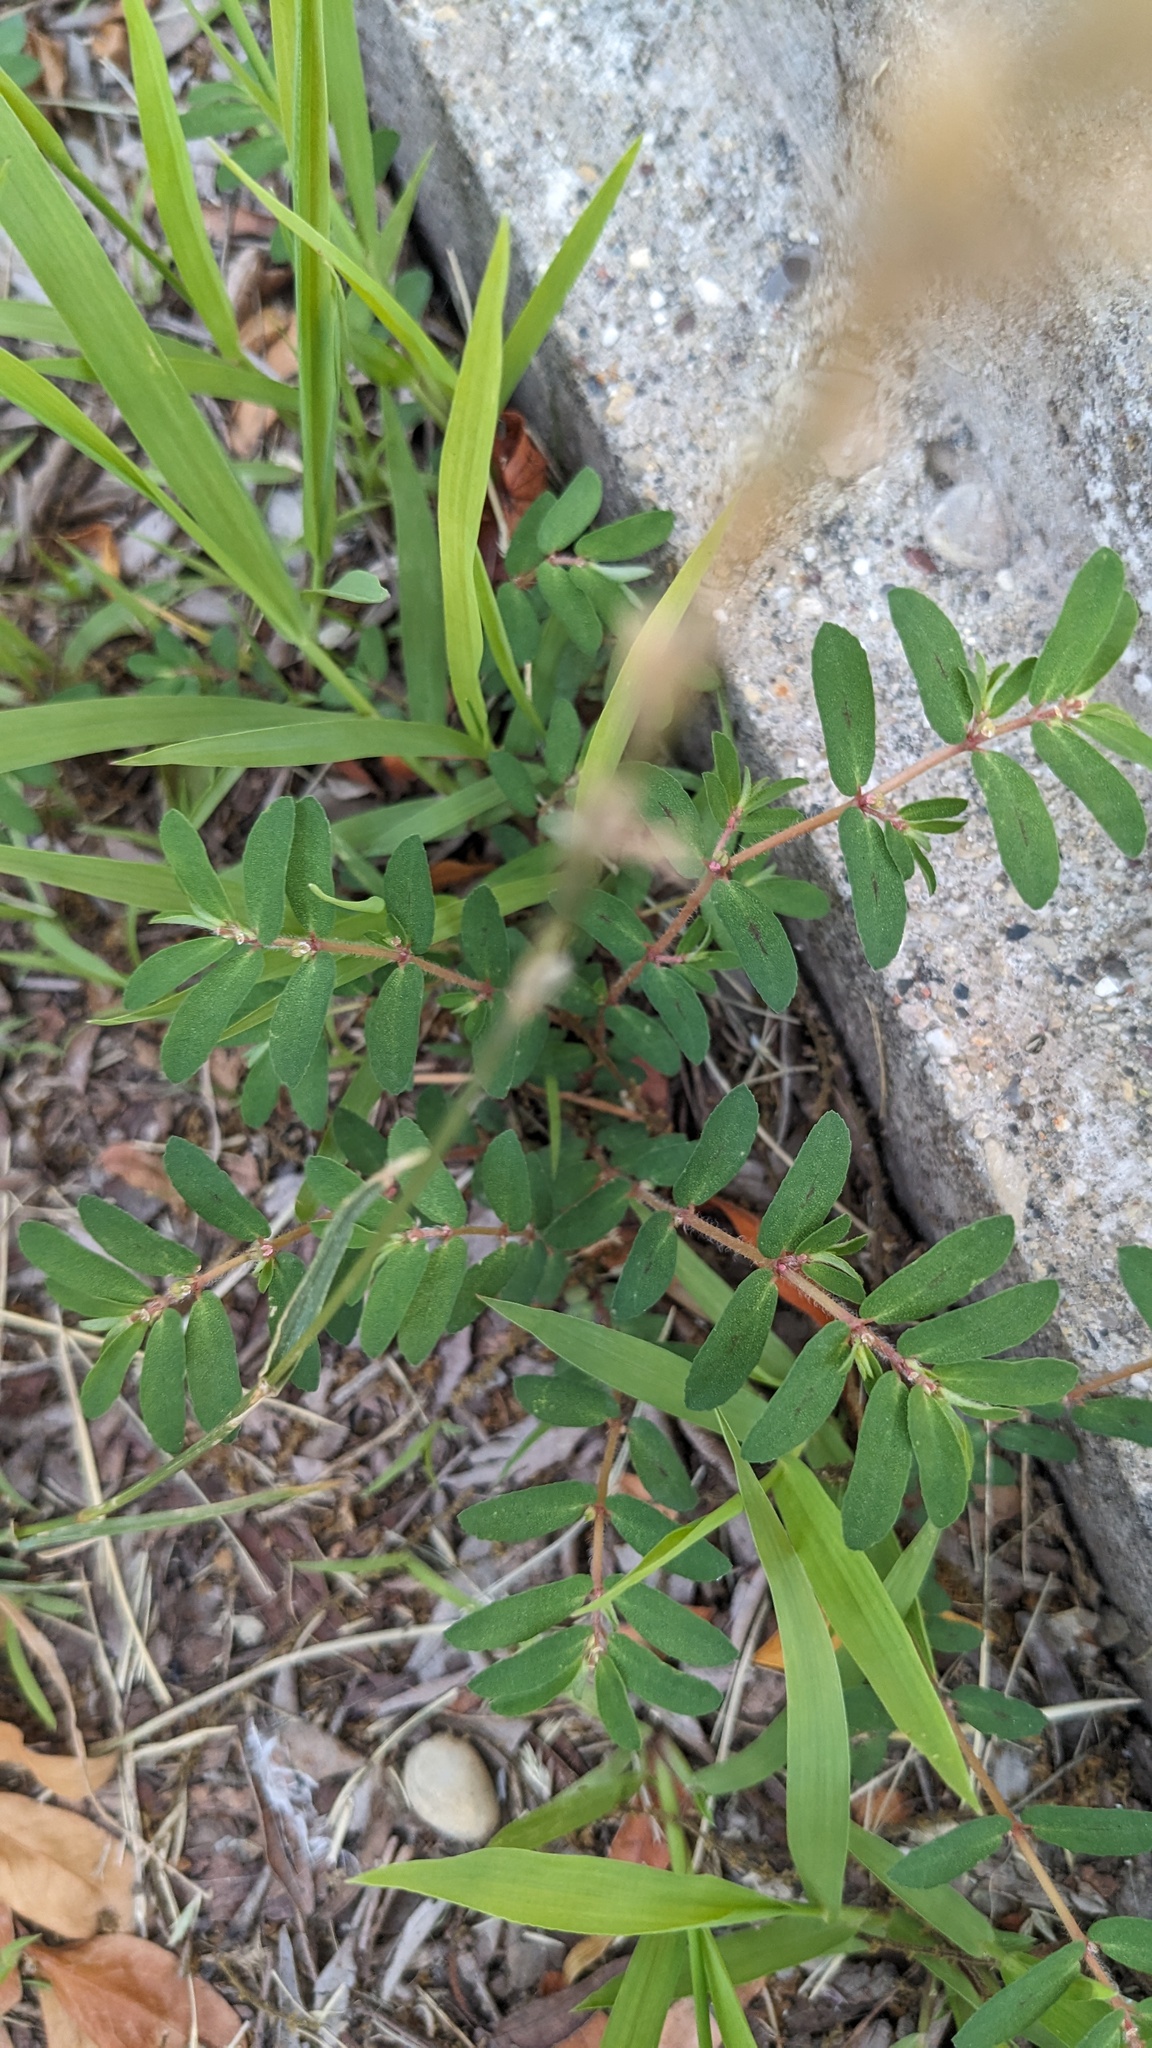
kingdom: Plantae
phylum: Tracheophyta
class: Magnoliopsida
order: Malpighiales
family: Euphorbiaceae
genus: Euphorbia
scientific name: Euphorbia maculata
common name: Spotted spurge
